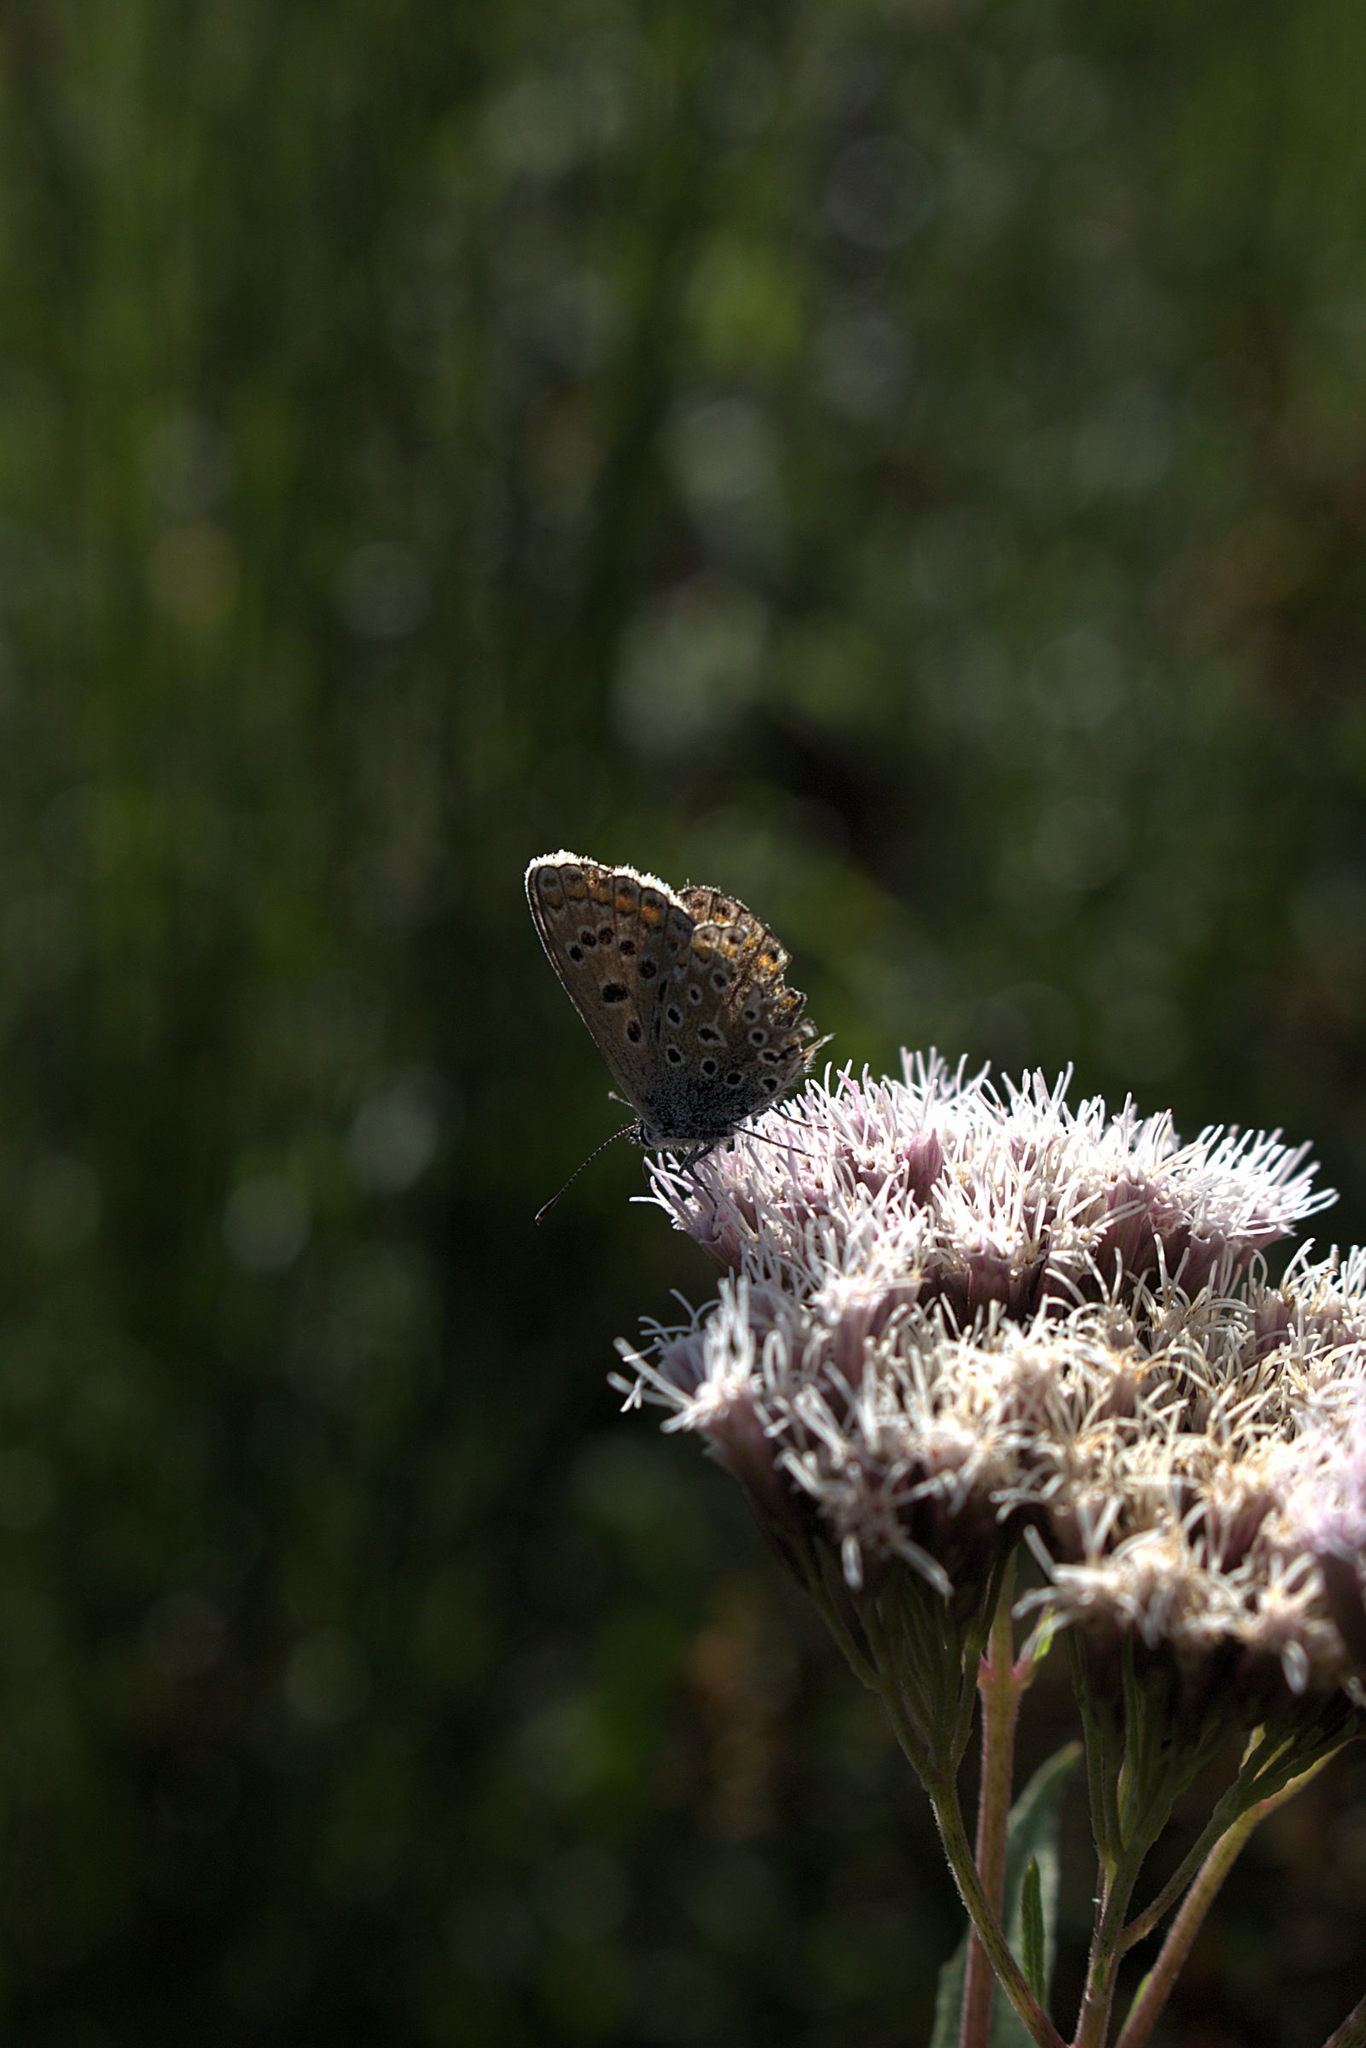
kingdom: Animalia
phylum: Arthropoda
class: Insecta
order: Lepidoptera
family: Lycaenidae
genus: Polyommatus
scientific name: Polyommatus icarus
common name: Common blue
